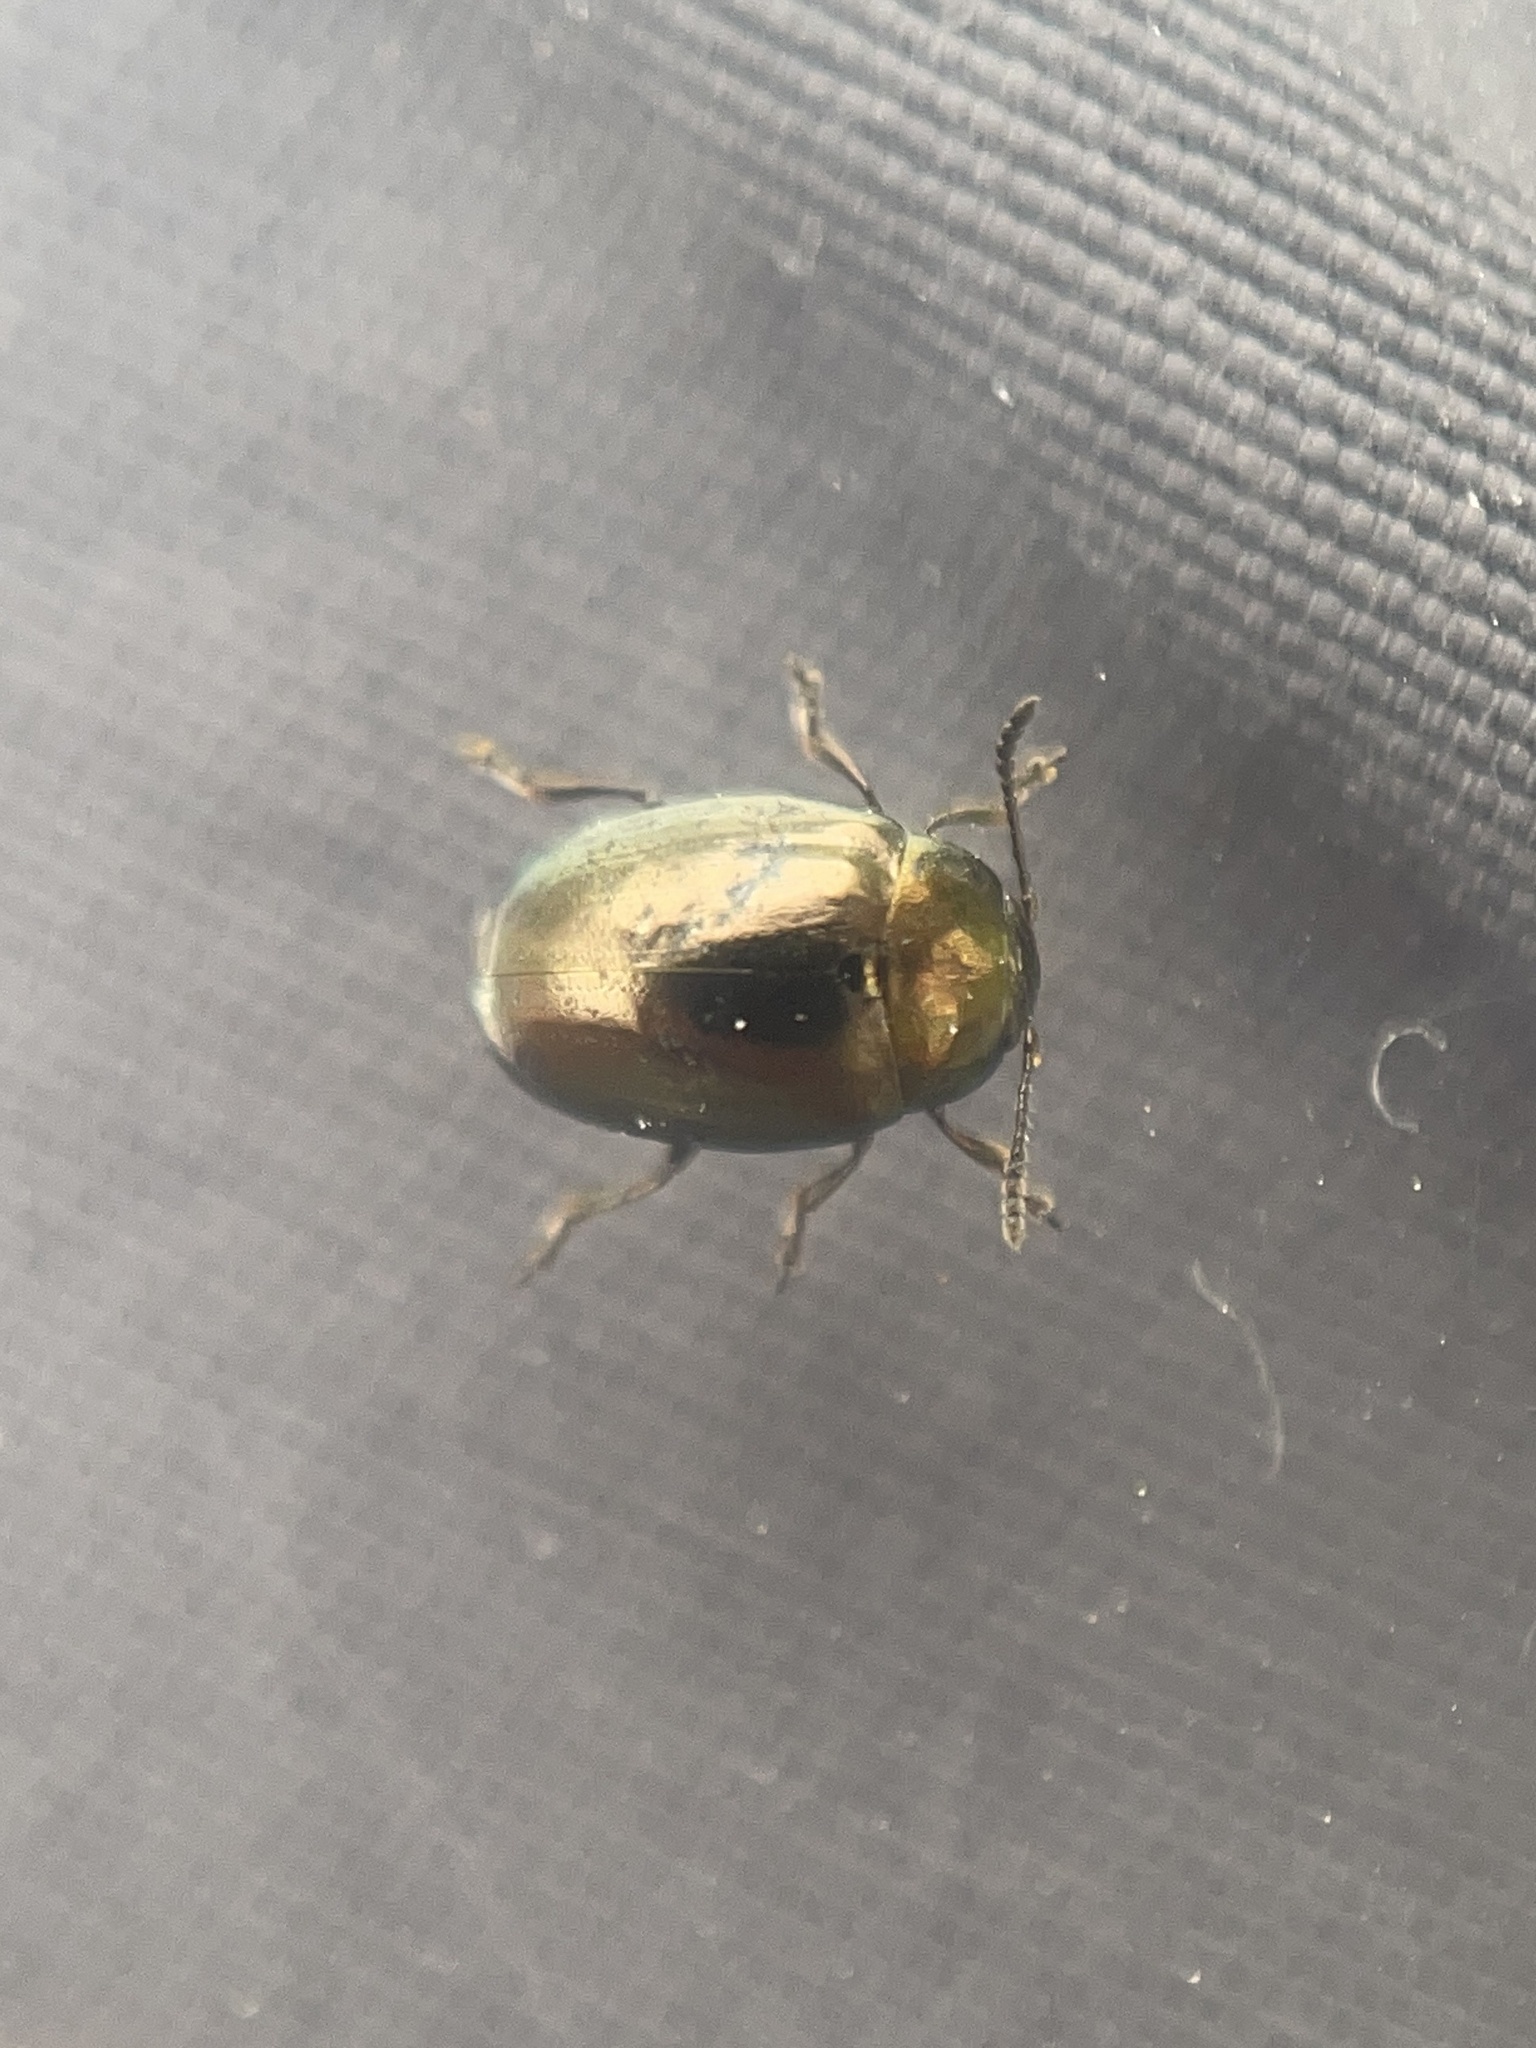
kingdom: Animalia
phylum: Arthropoda
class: Insecta
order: Coleoptera
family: Chrysomelidae
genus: Phaedon
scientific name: Phaedon desotonis
